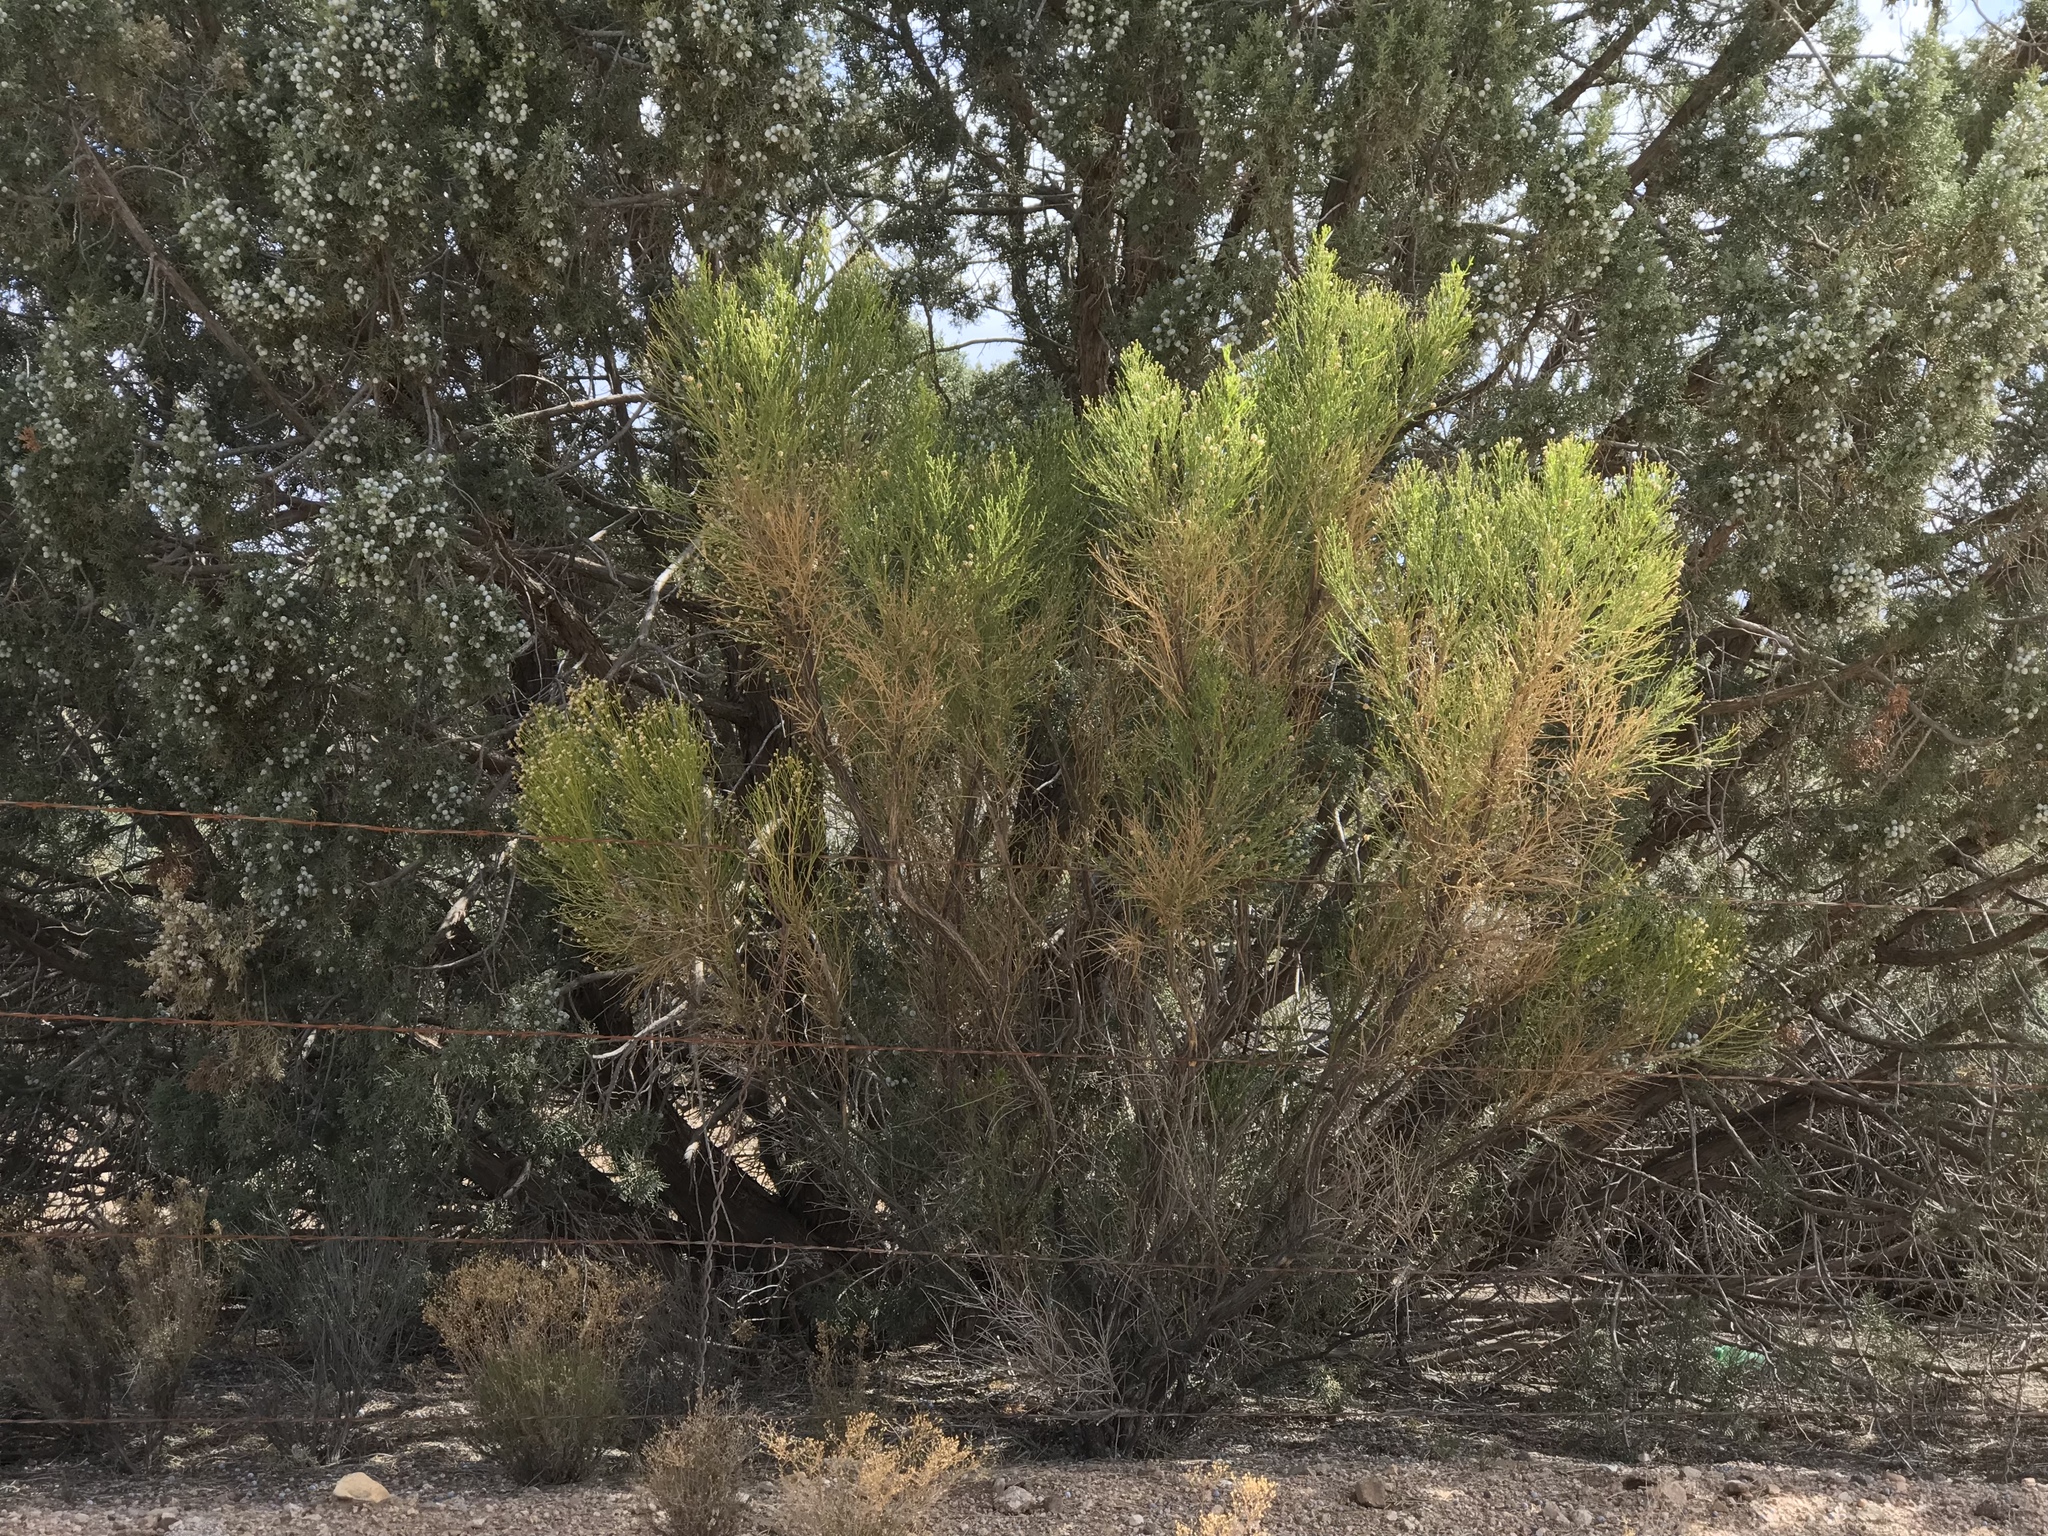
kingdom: Plantae
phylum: Tracheophyta
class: Magnoliopsida
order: Asterales
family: Asteraceae
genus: Baccharis
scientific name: Baccharis sarothroides
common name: Desert-broom
